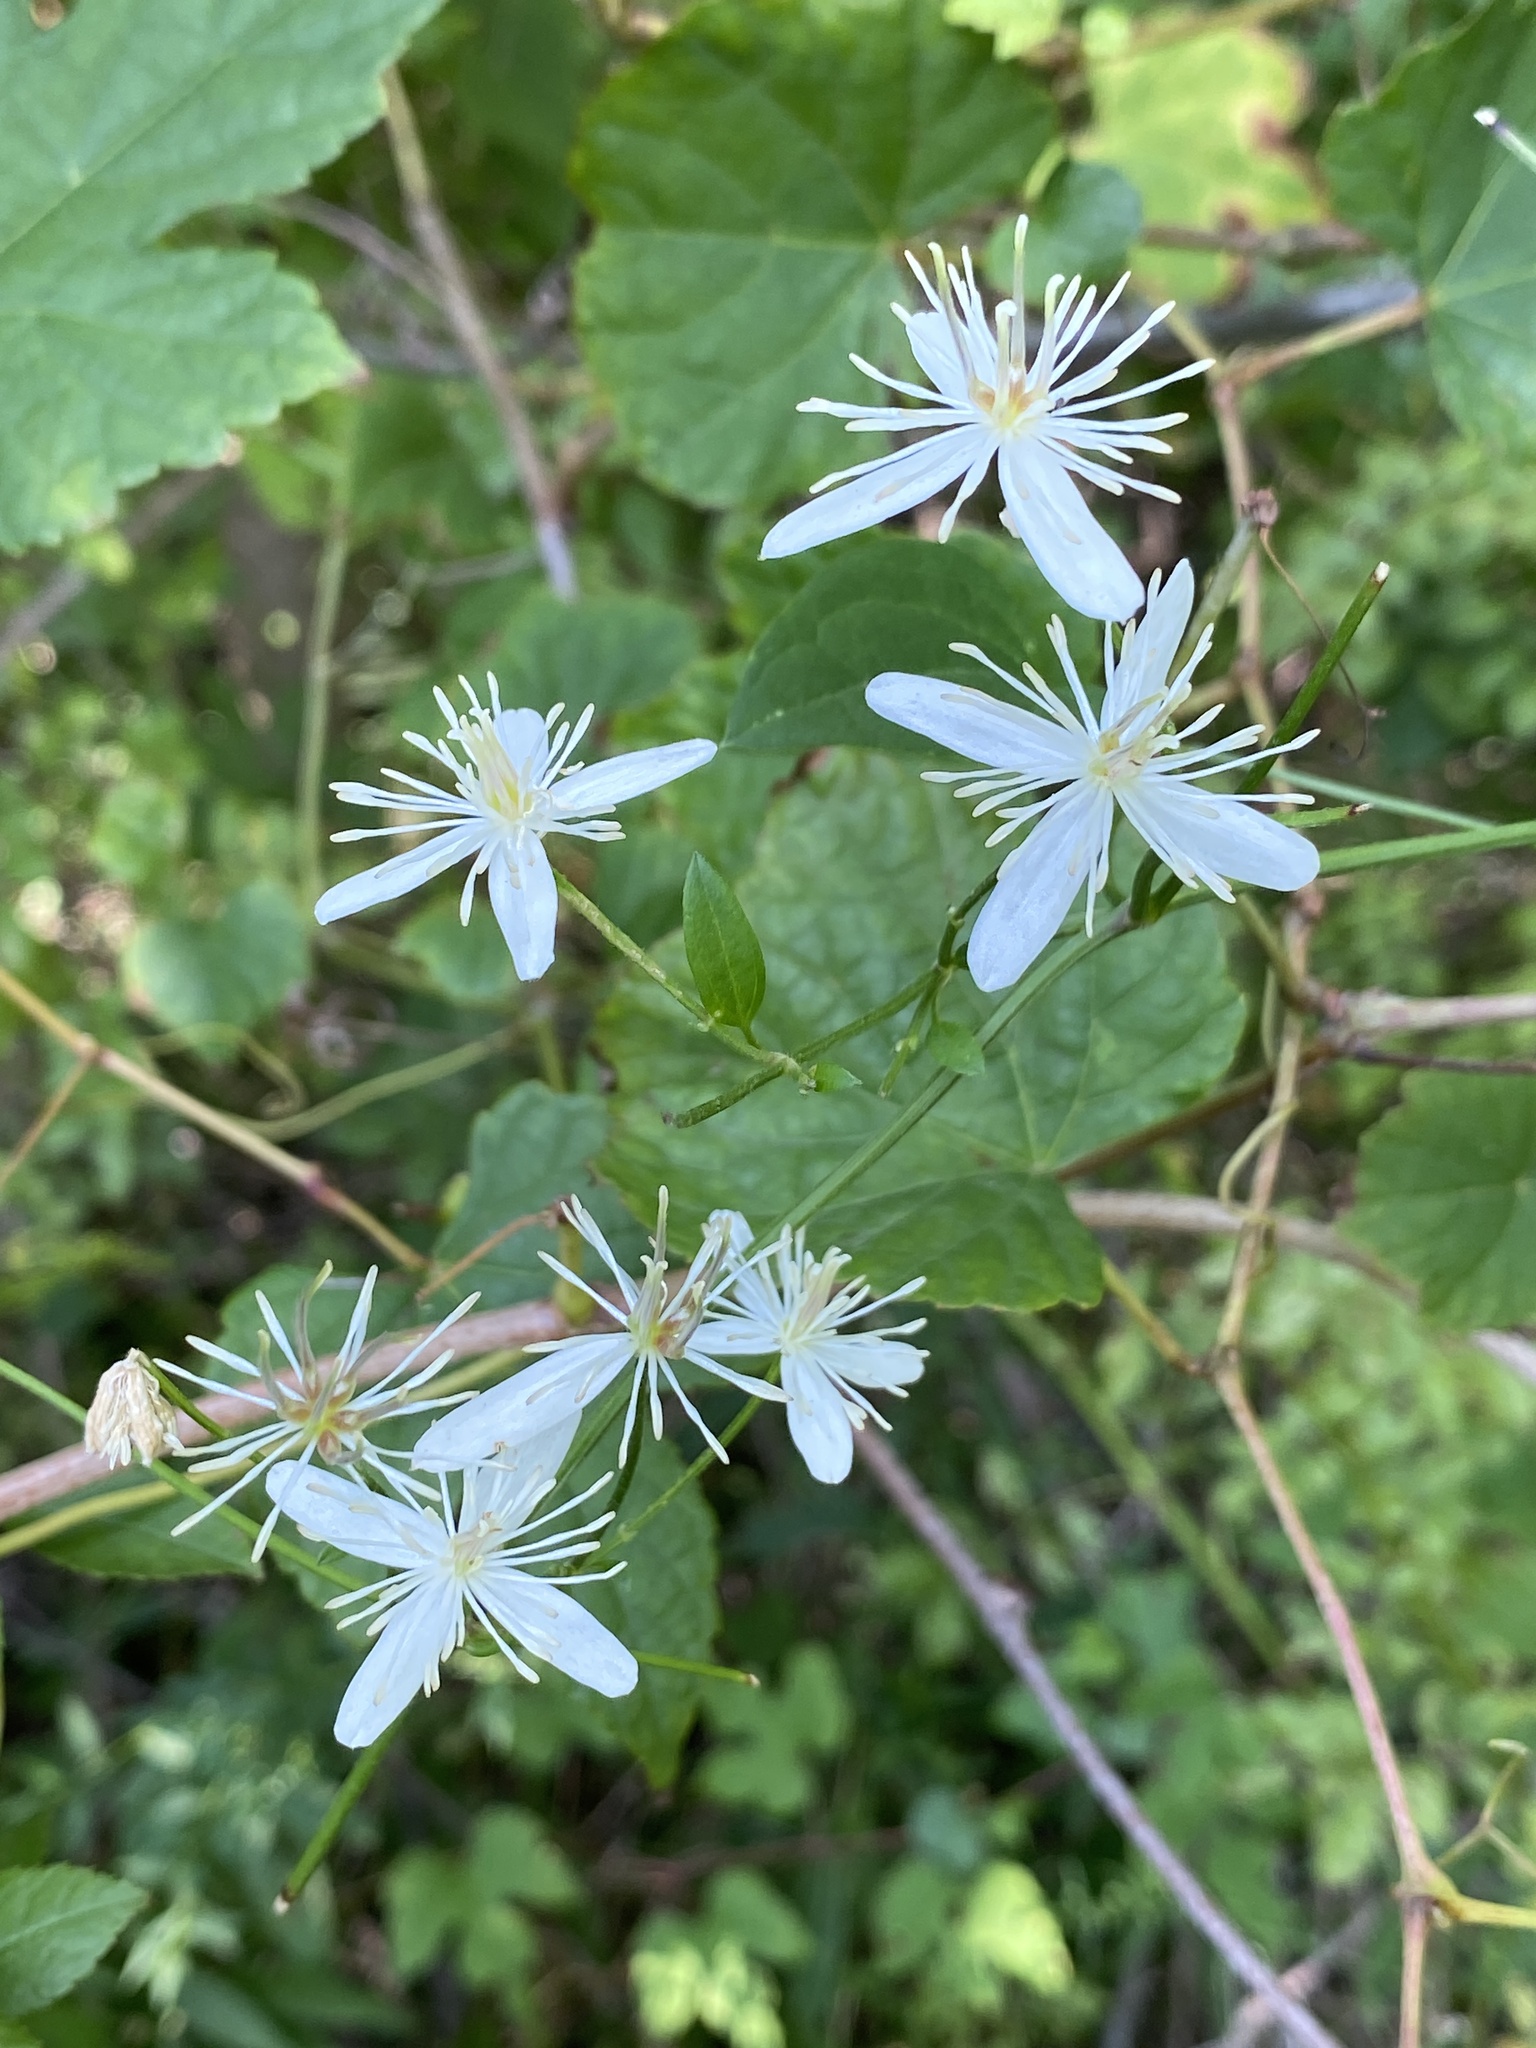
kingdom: Plantae
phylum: Tracheophyta
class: Magnoliopsida
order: Ranunculales
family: Ranunculaceae
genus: Clematis
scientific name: Clematis terniflora
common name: Sweet autumn clematis
